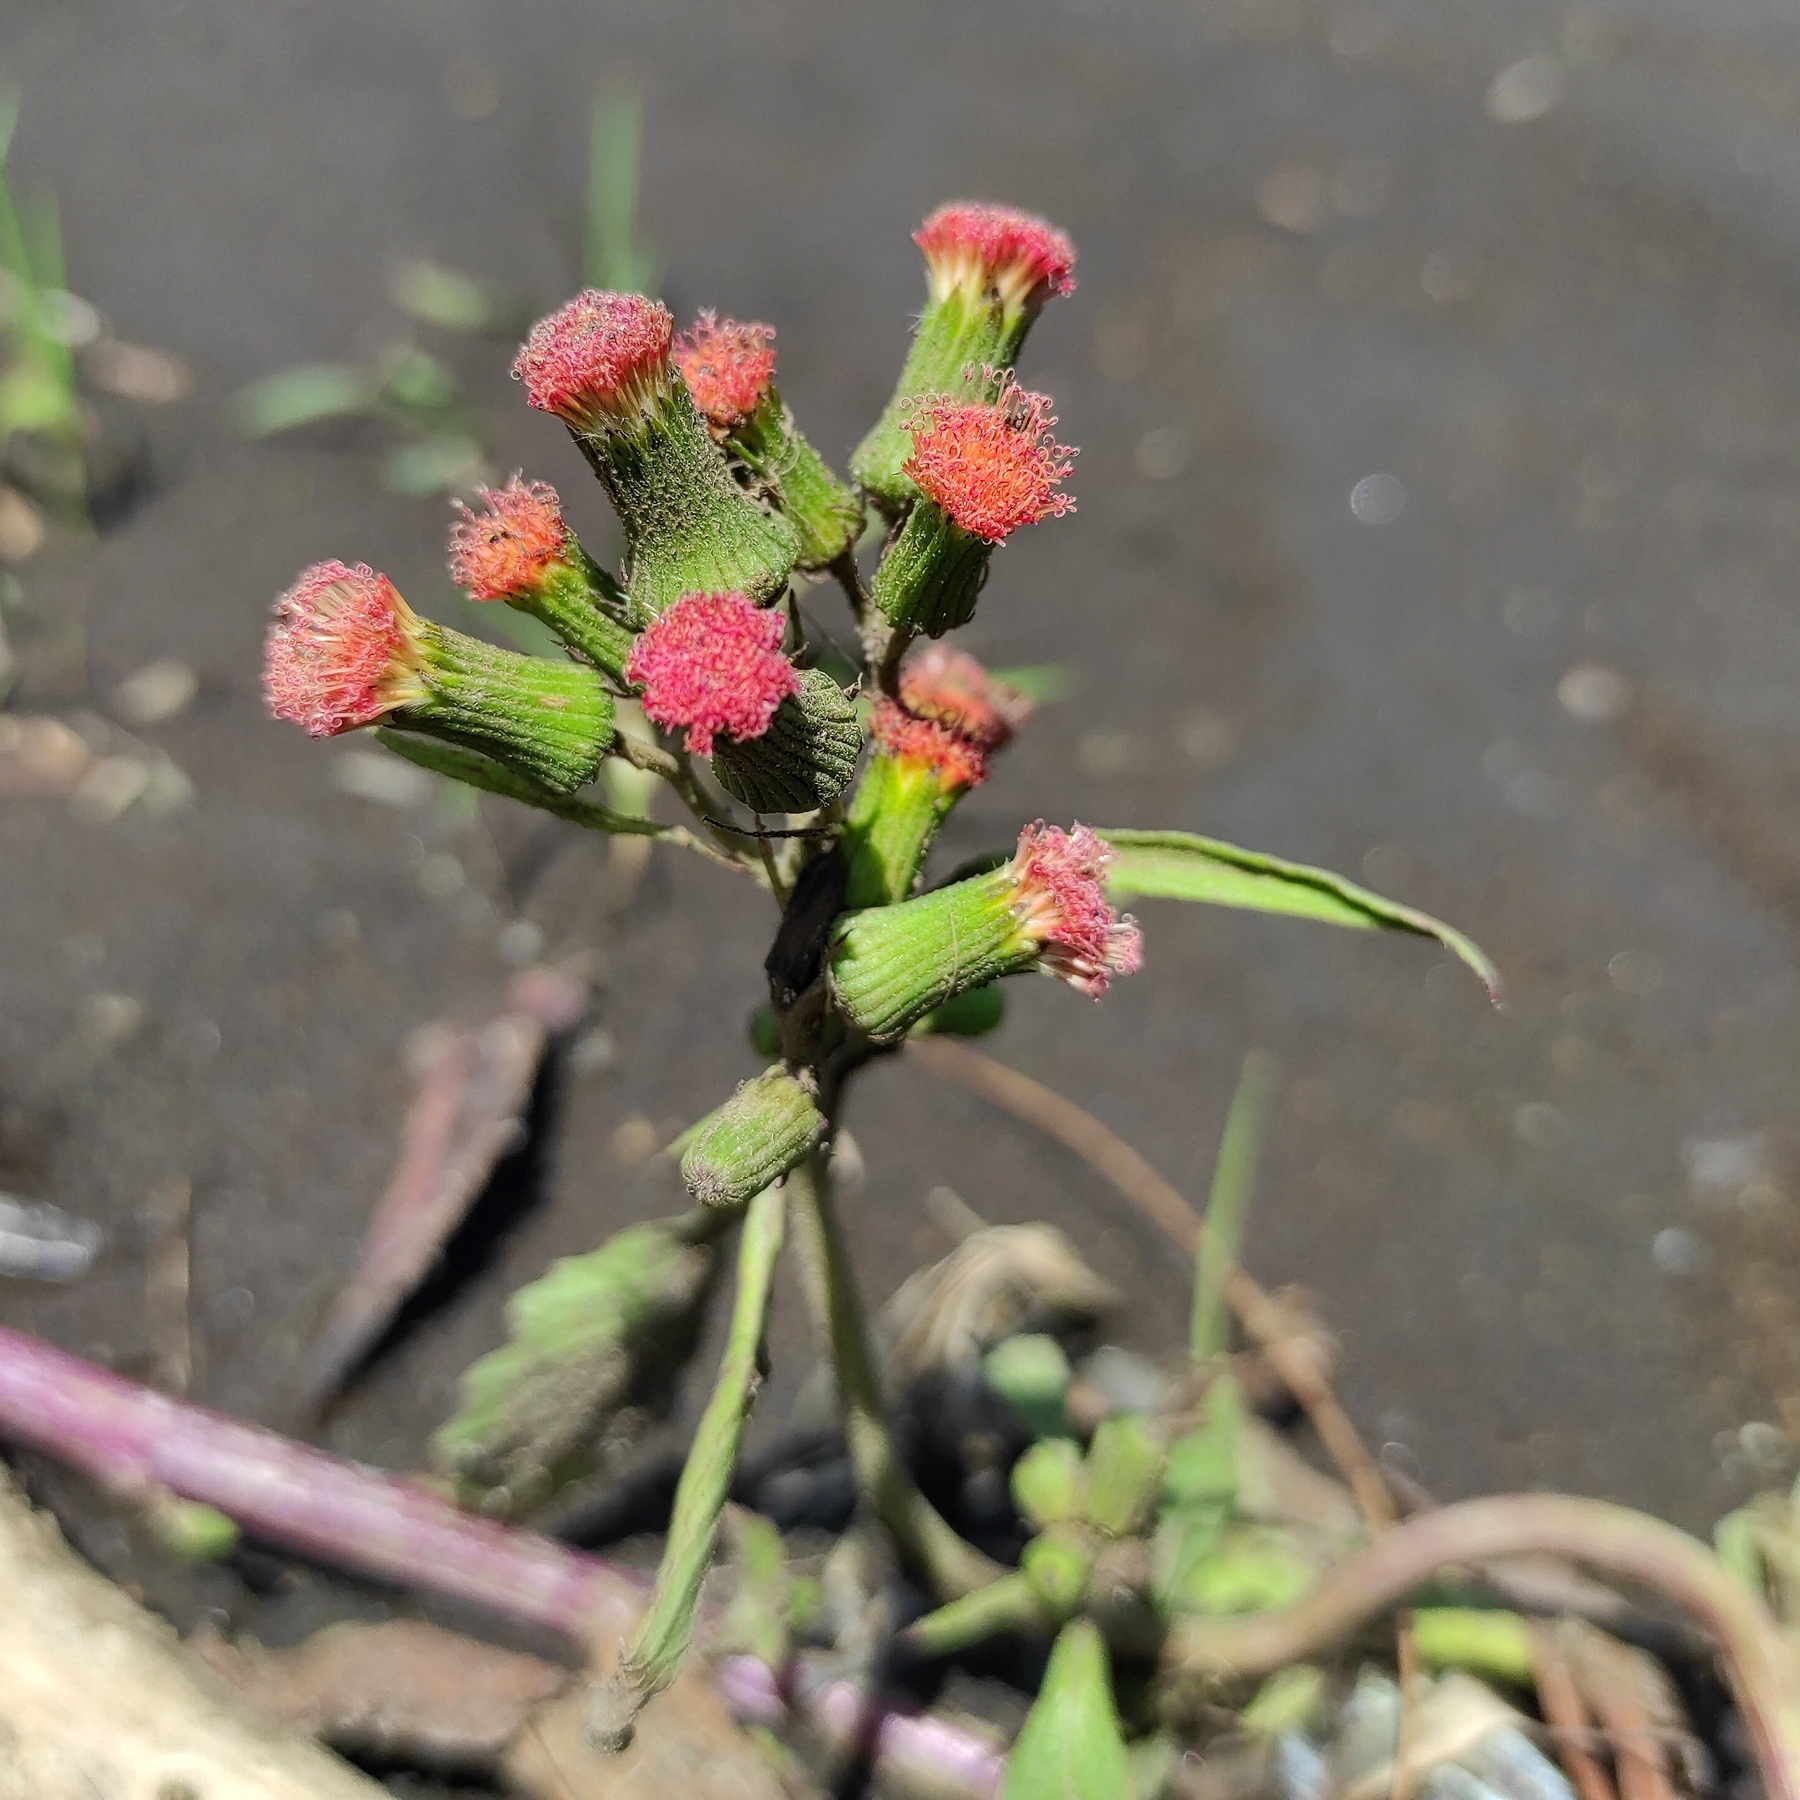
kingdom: Plantae
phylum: Tracheophyta
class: Magnoliopsida
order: Asterales
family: Asteraceae
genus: Crassocephalum
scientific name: Crassocephalum crepidioides
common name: Redflower ragleaf
